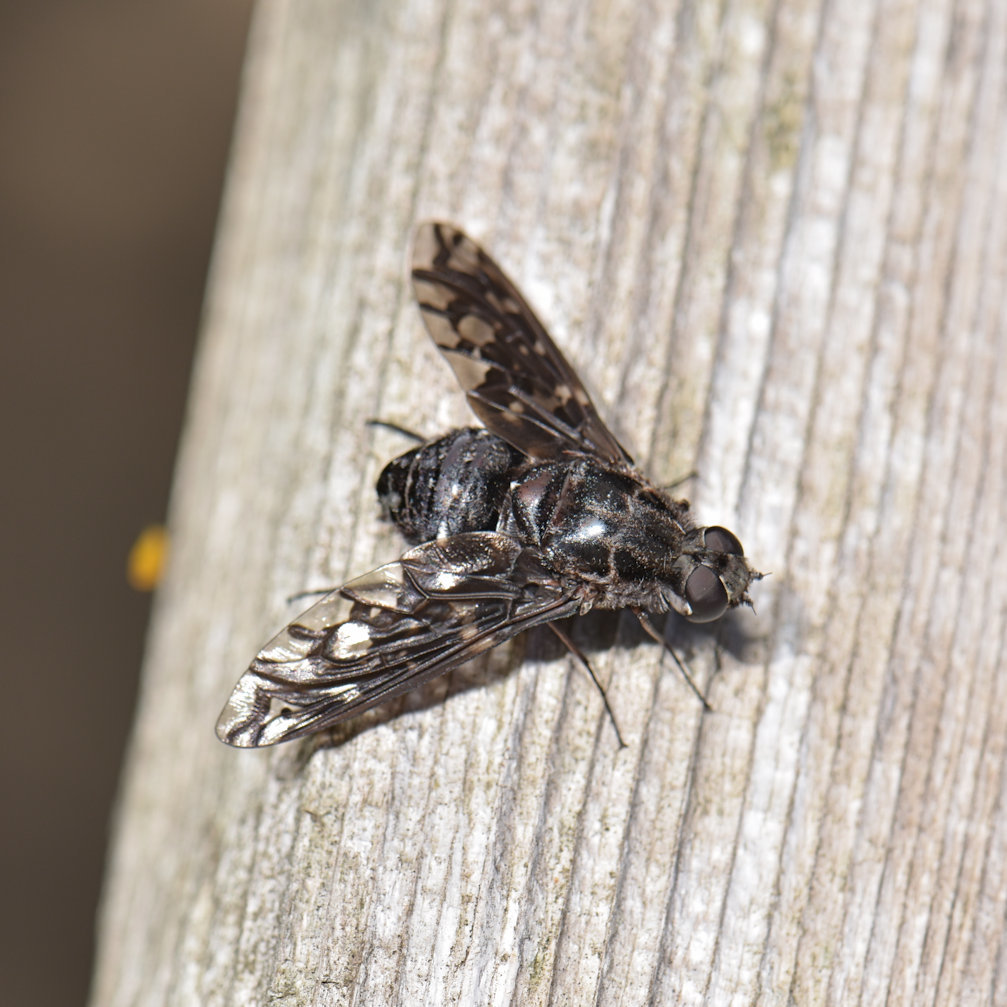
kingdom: Animalia
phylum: Arthropoda
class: Insecta
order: Diptera
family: Bombyliidae
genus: Xenox
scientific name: Xenox tigrinus
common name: Tiger bee fly
